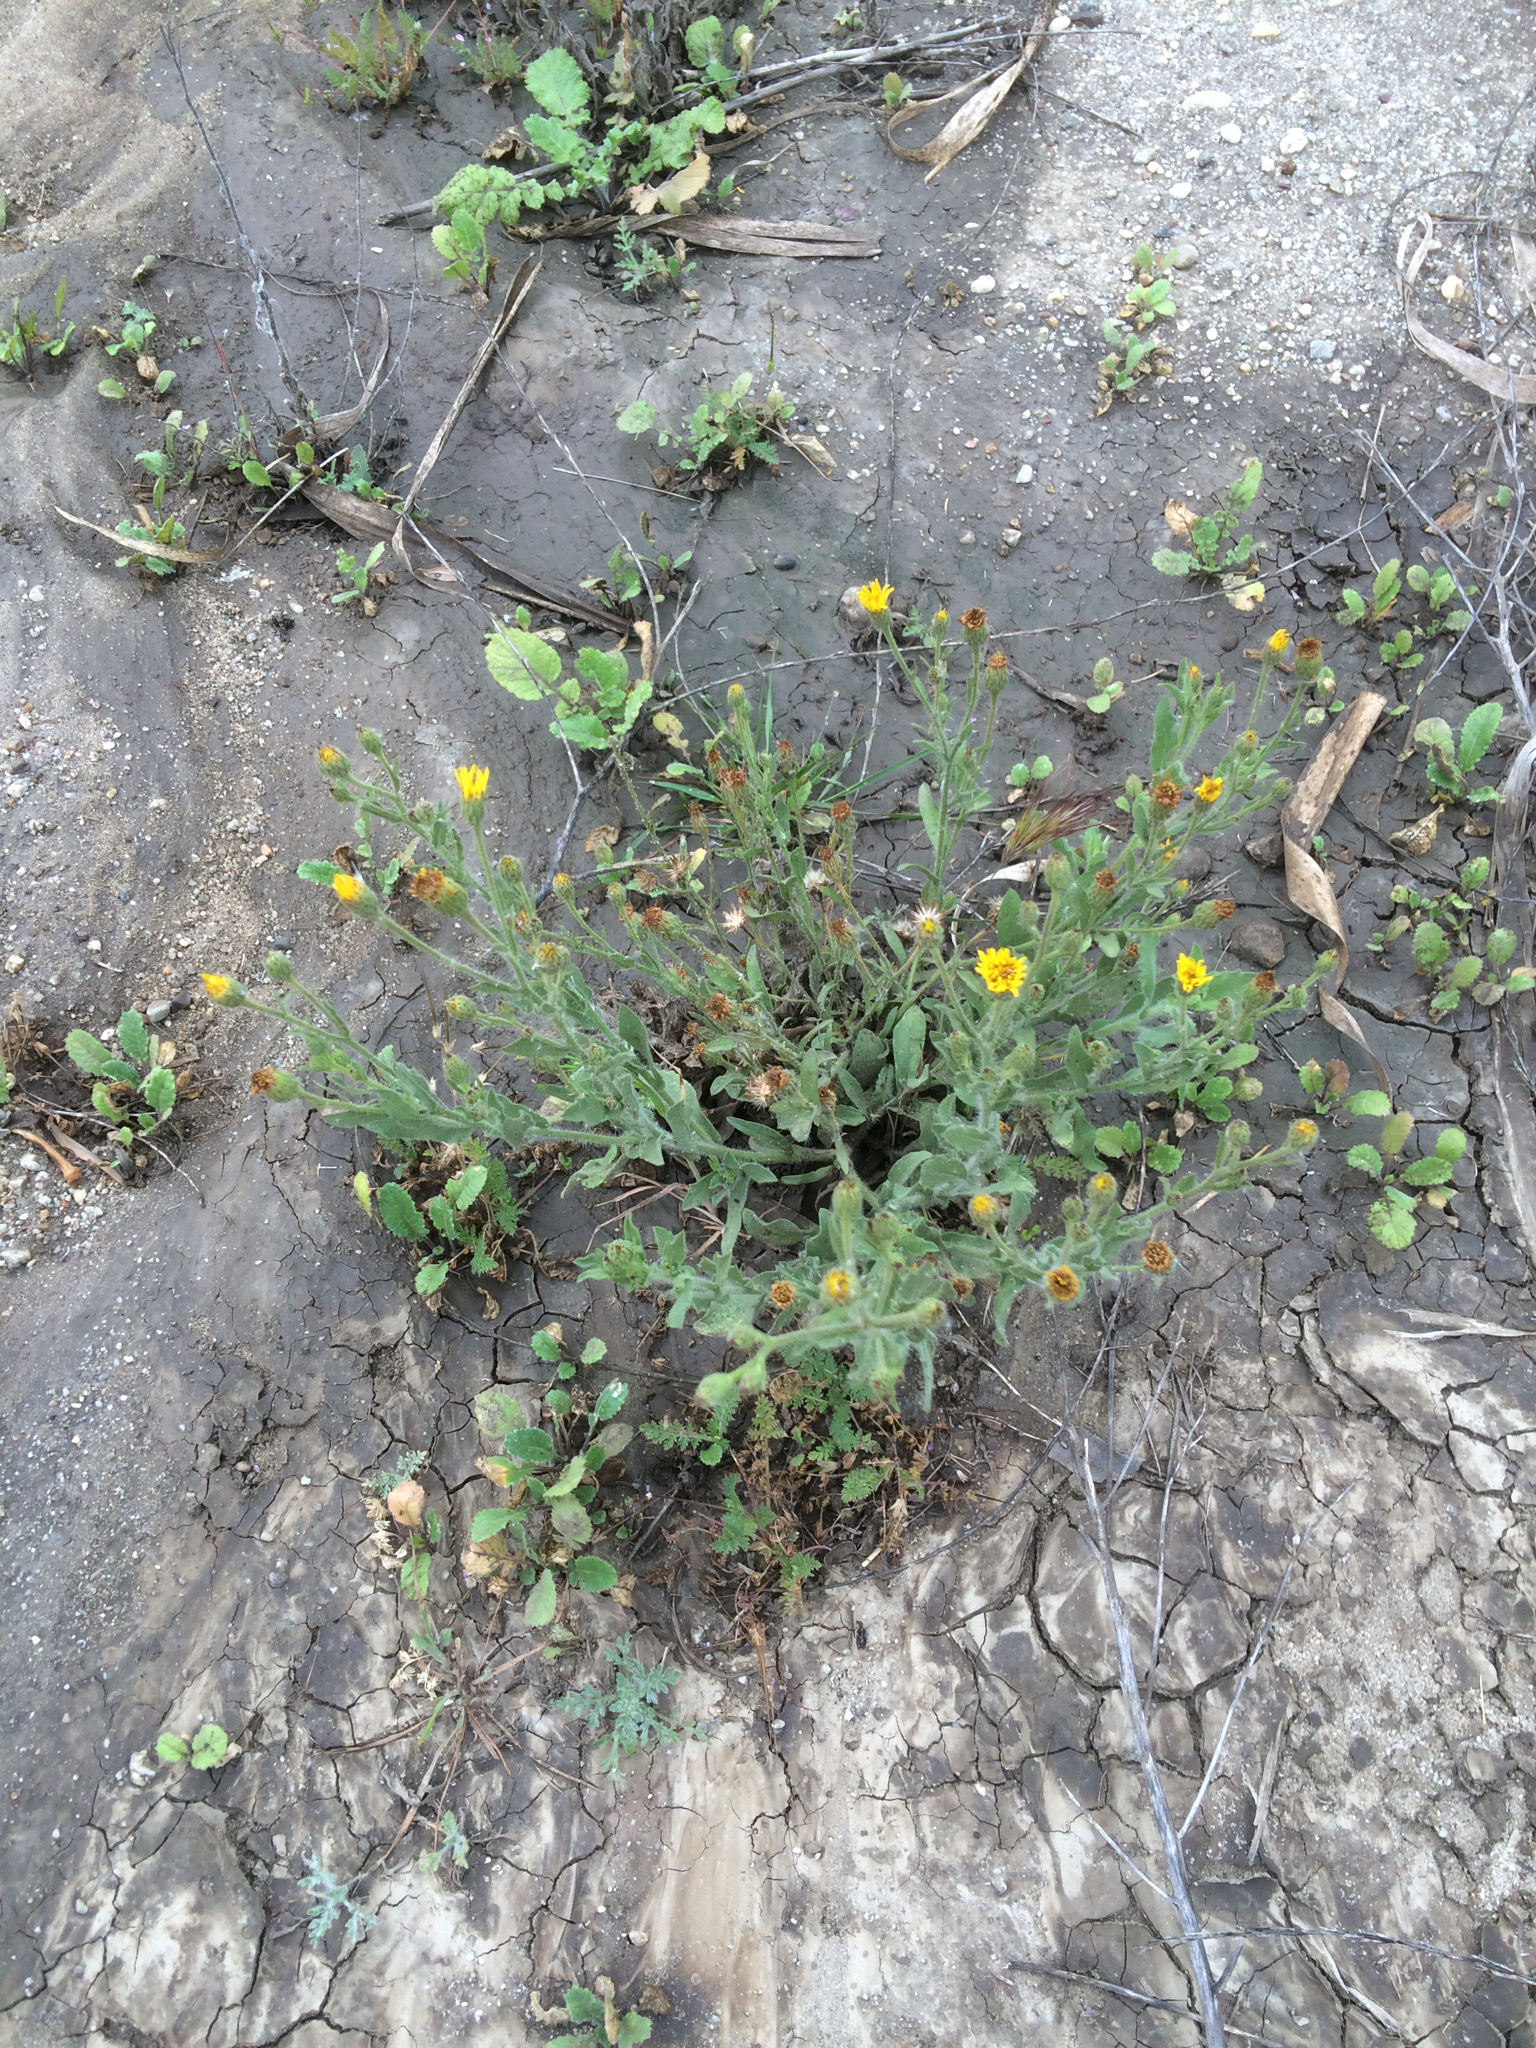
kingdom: Plantae
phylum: Tracheophyta
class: Magnoliopsida
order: Asterales
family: Asteraceae
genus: Heterotheca
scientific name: Heterotheca grandiflora
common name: Telegraphweed
